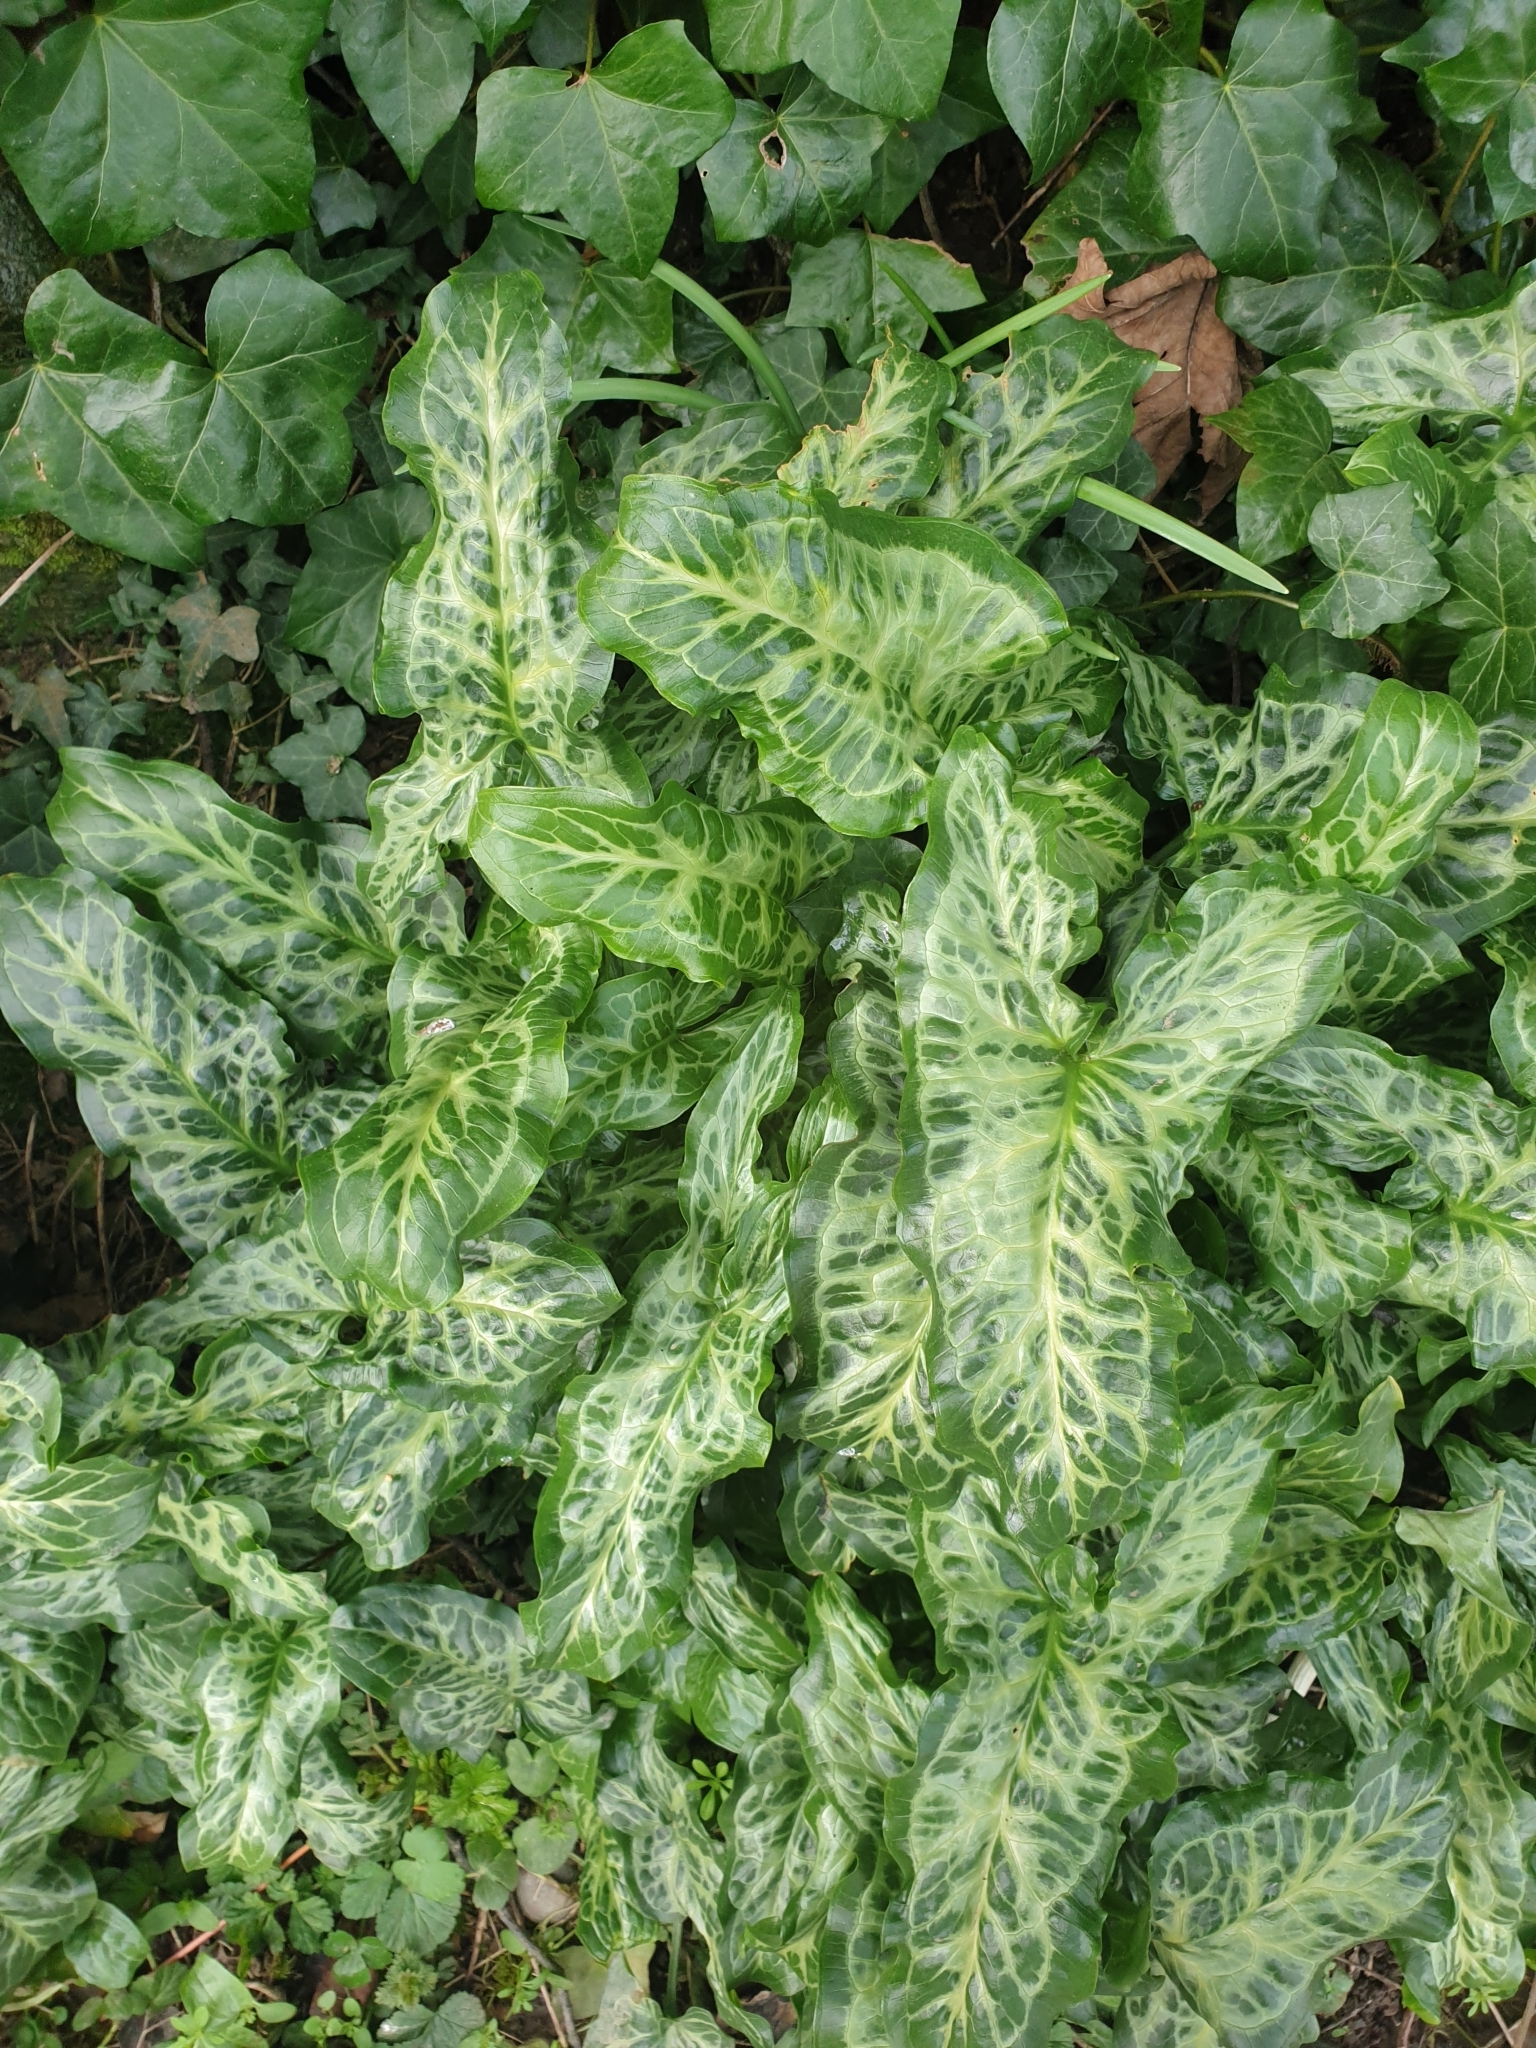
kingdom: Plantae
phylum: Tracheophyta
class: Liliopsida
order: Alismatales
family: Araceae
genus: Arum
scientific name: Arum italicum
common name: Italian lords-and-ladies
